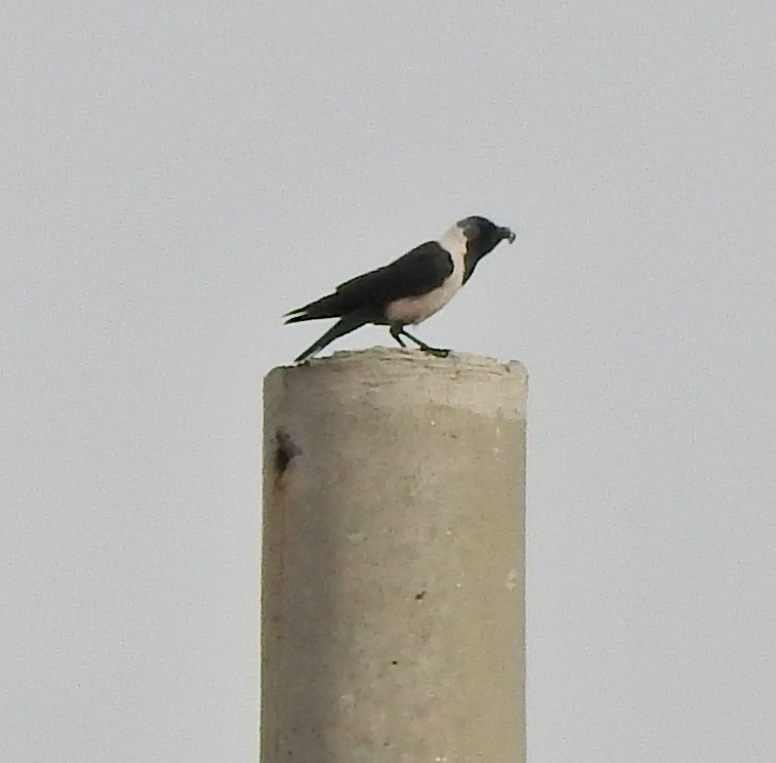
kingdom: Animalia
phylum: Chordata
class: Aves
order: Passeriformes
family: Corvidae
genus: Coloeus
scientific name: Coloeus dauuricus
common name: Daurian jackdaw
